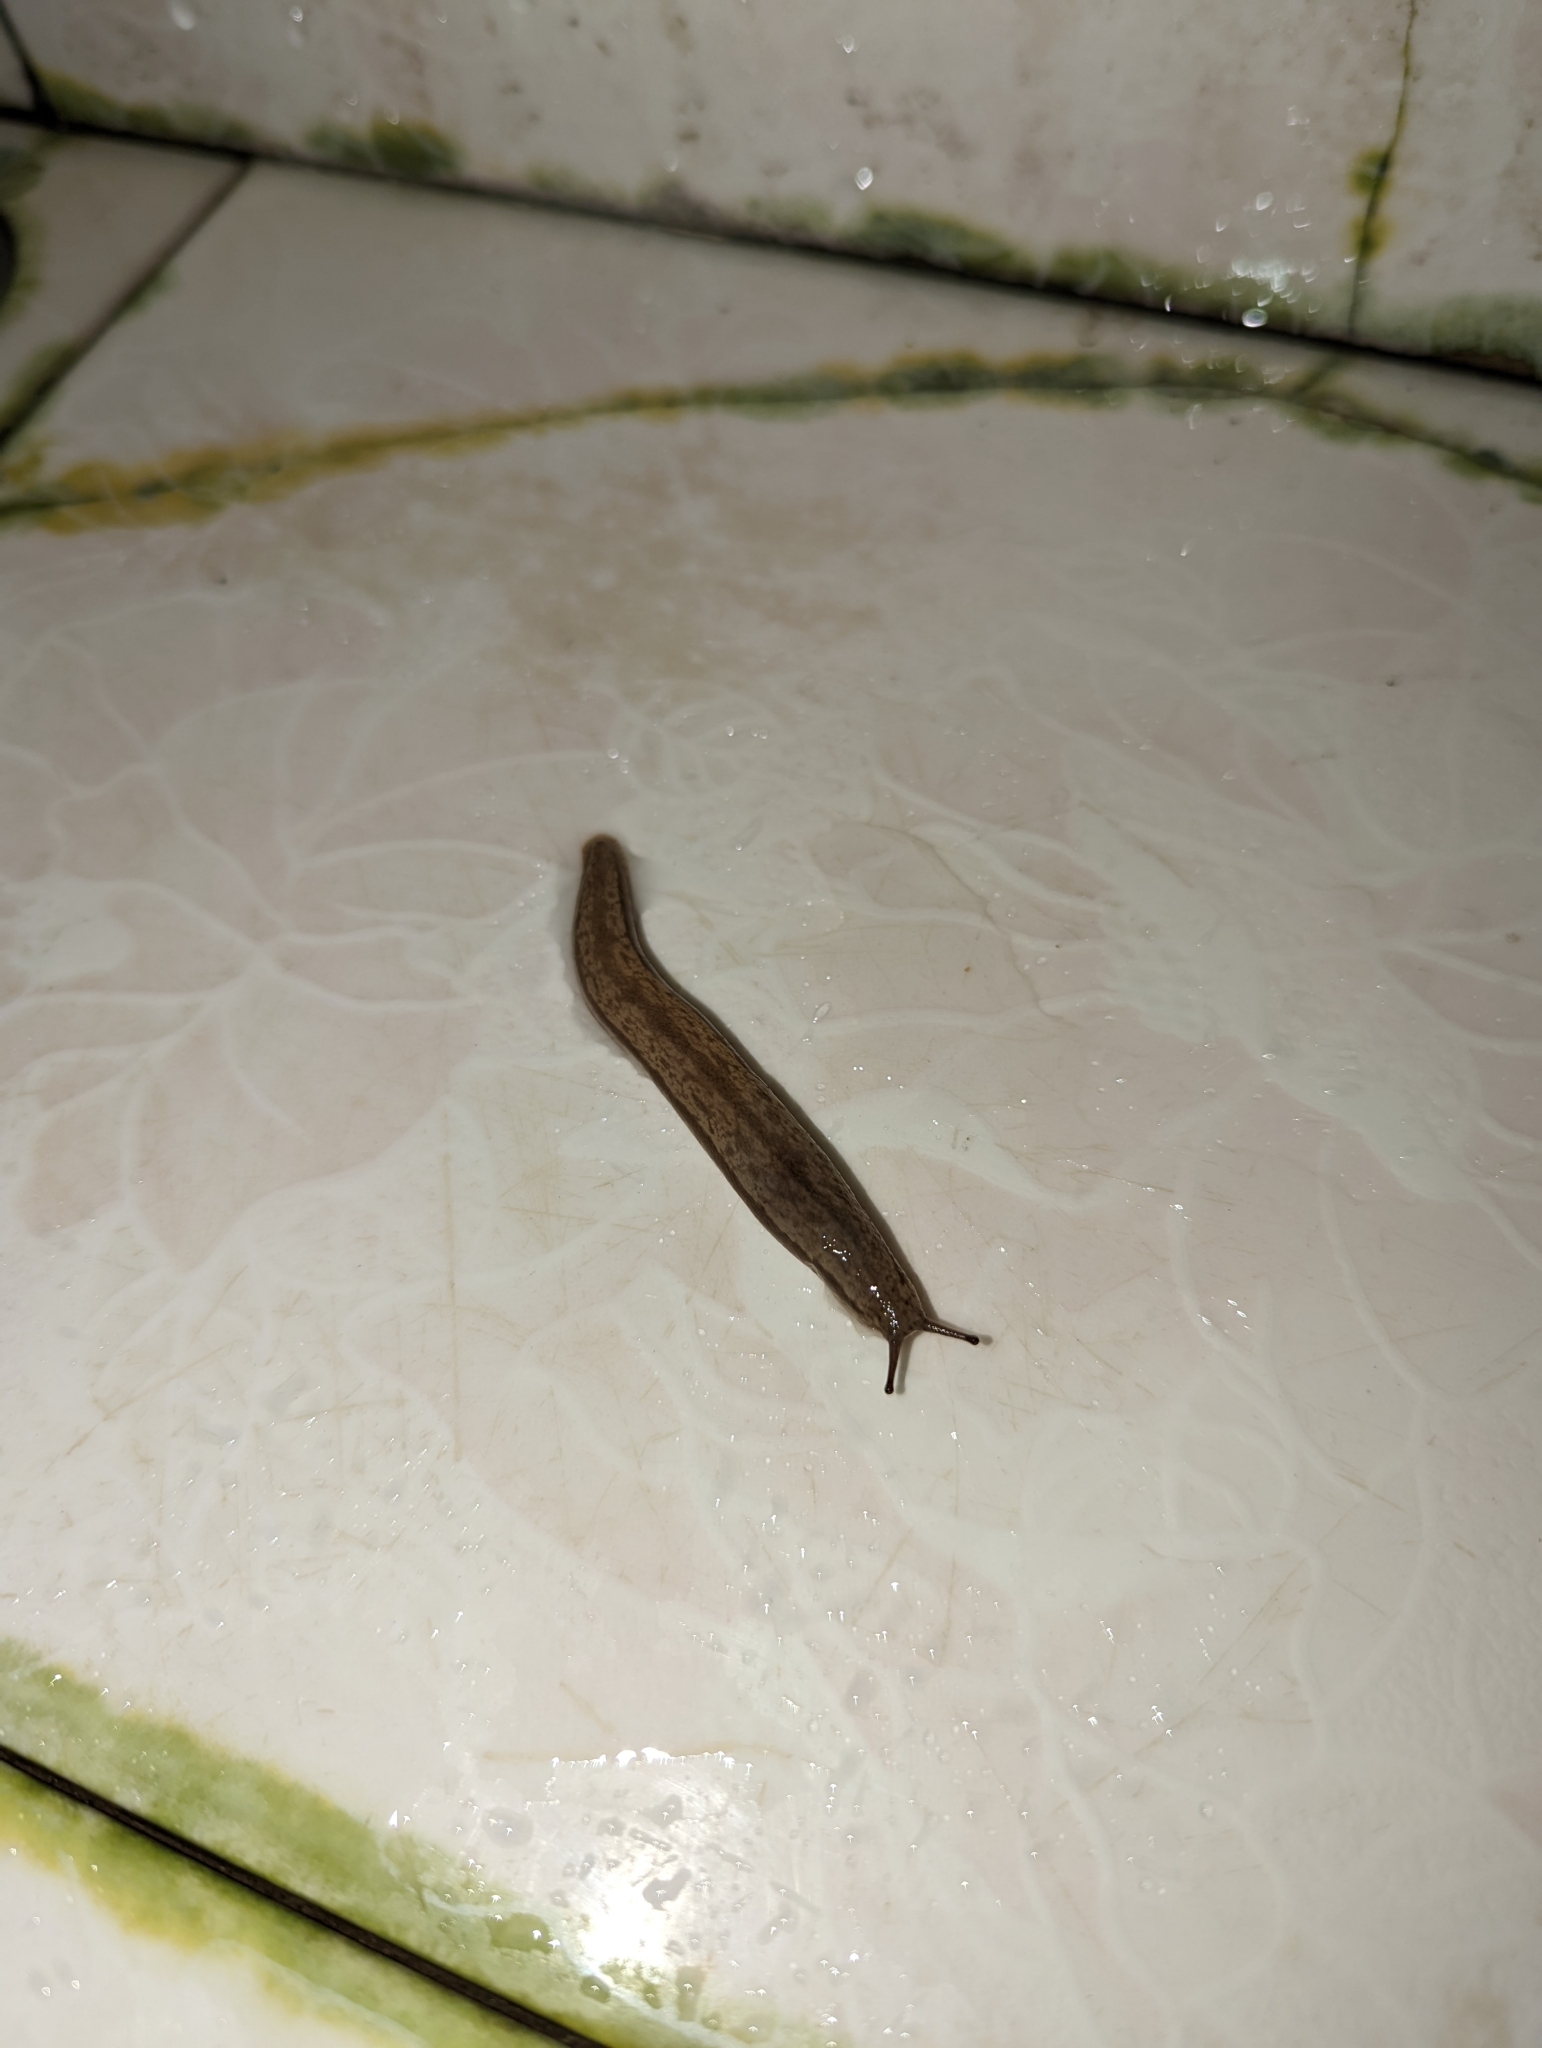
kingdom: Animalia
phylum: Mollusca
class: Gastropoda
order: Stylommatophora
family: Philomycidae
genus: Meghimatium
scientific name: Meghimatium bilineatum
